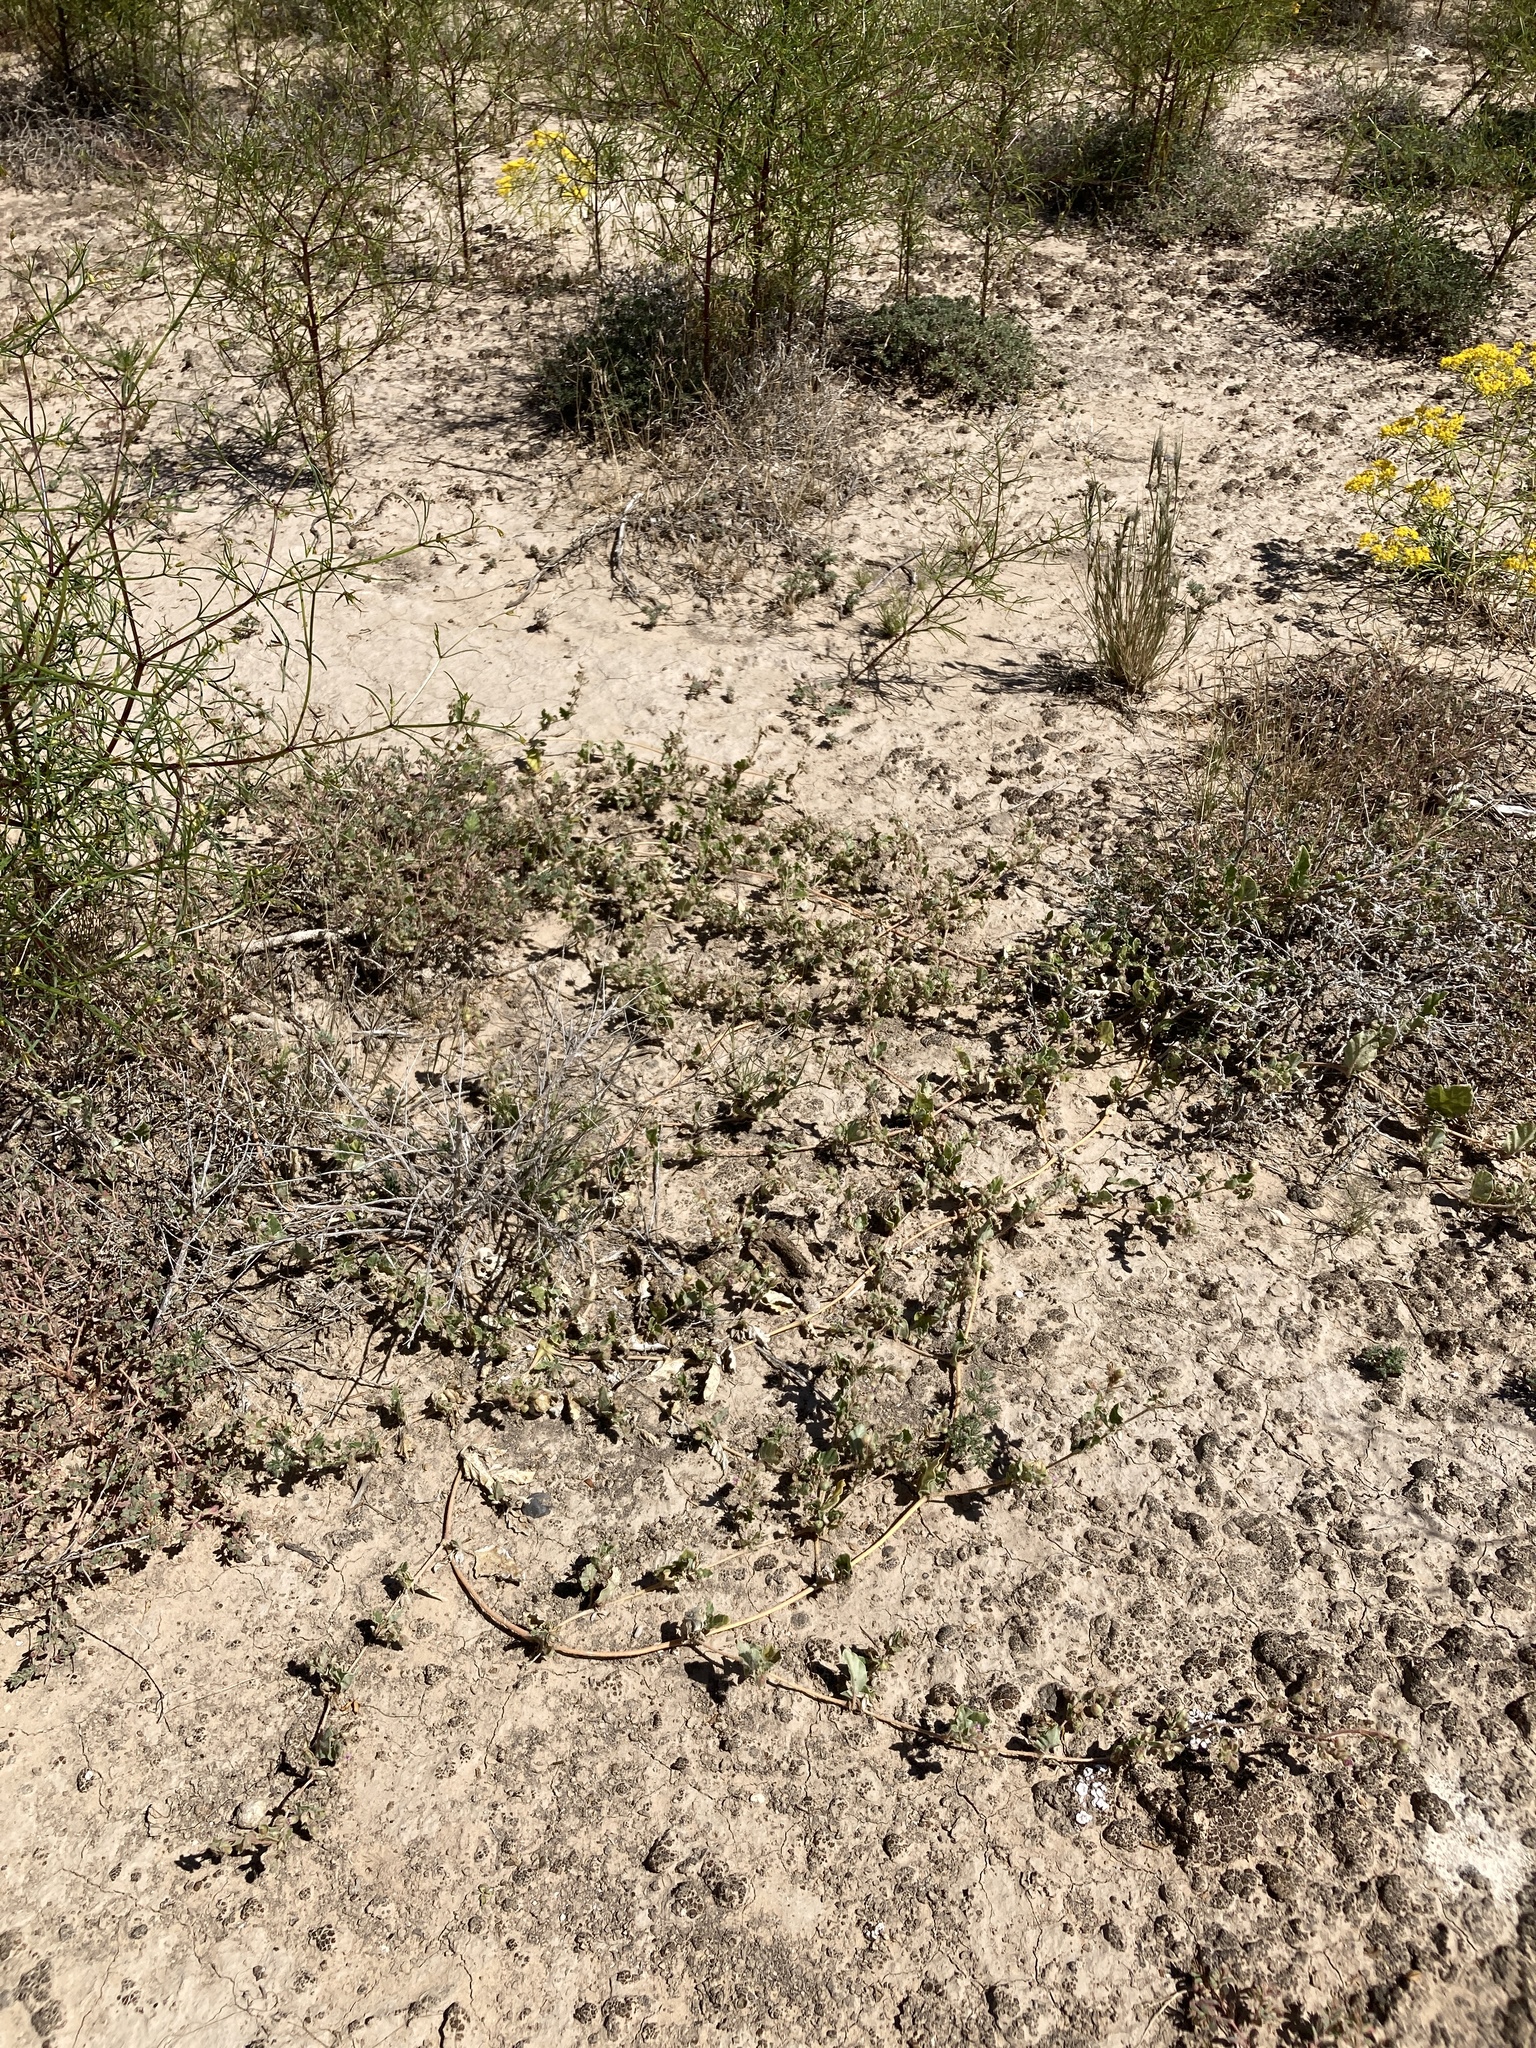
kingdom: Plantae
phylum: Tracheophyta
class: Magnoliopsida
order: Caryophyllales
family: Nyctaginaceae
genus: Allionia
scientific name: Allionia choisyi
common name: Trailing-four-o'clock
